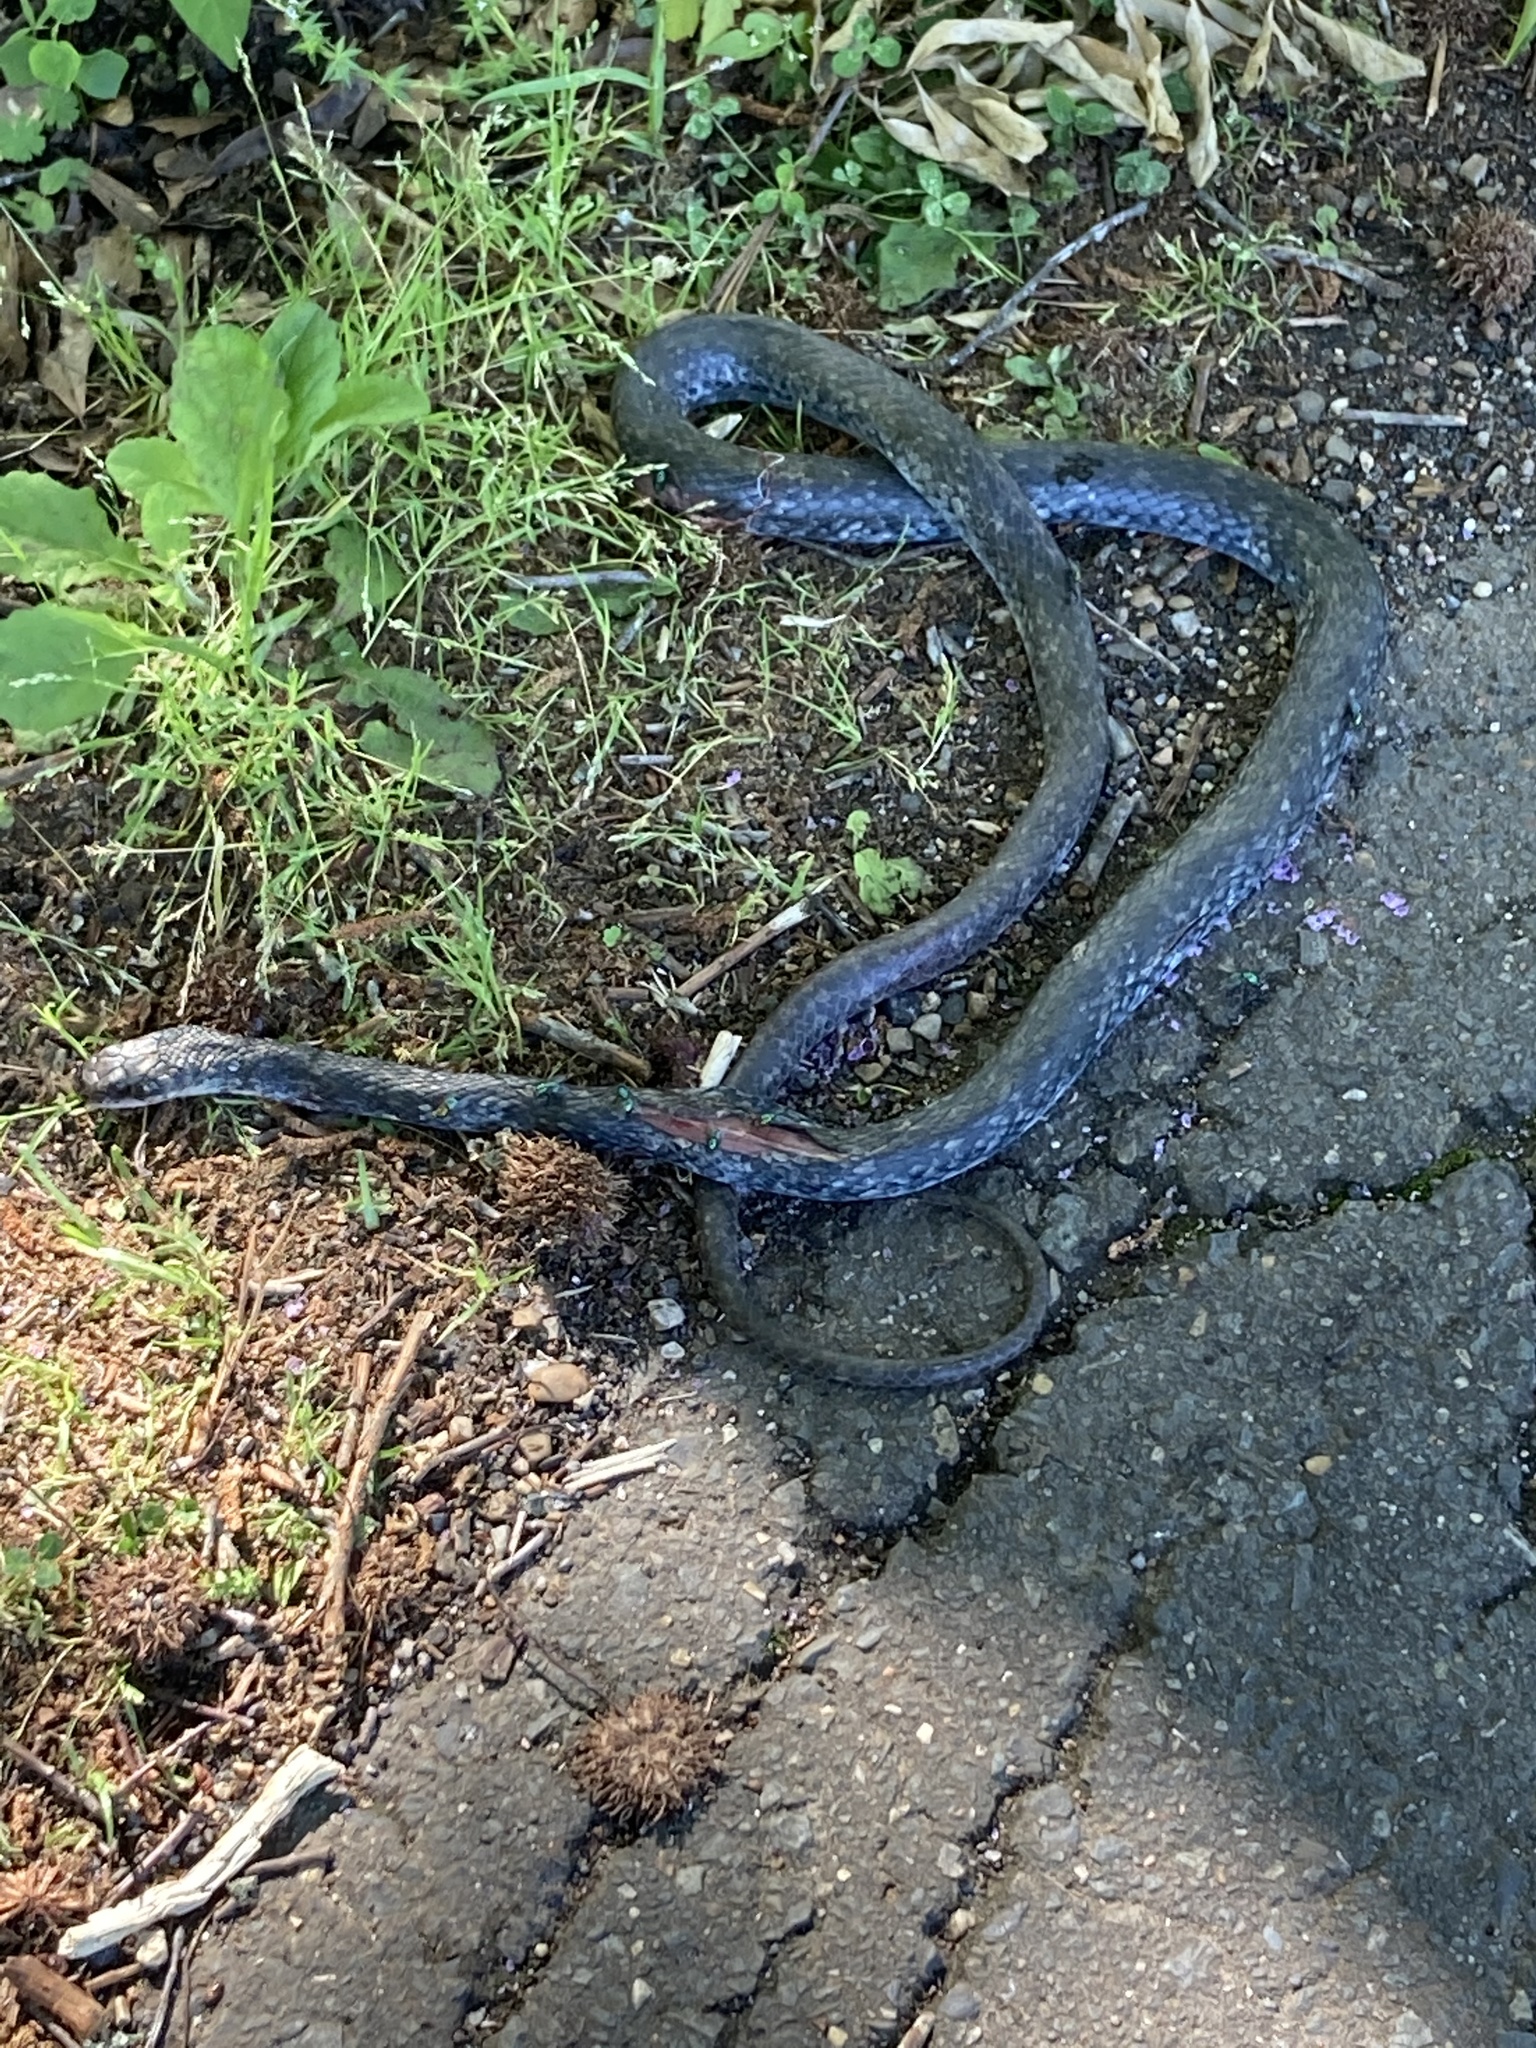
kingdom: Animalia
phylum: Chordata
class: Squamata
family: Colubridae
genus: Coluber
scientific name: Coluber constrictor
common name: Eastern racer
